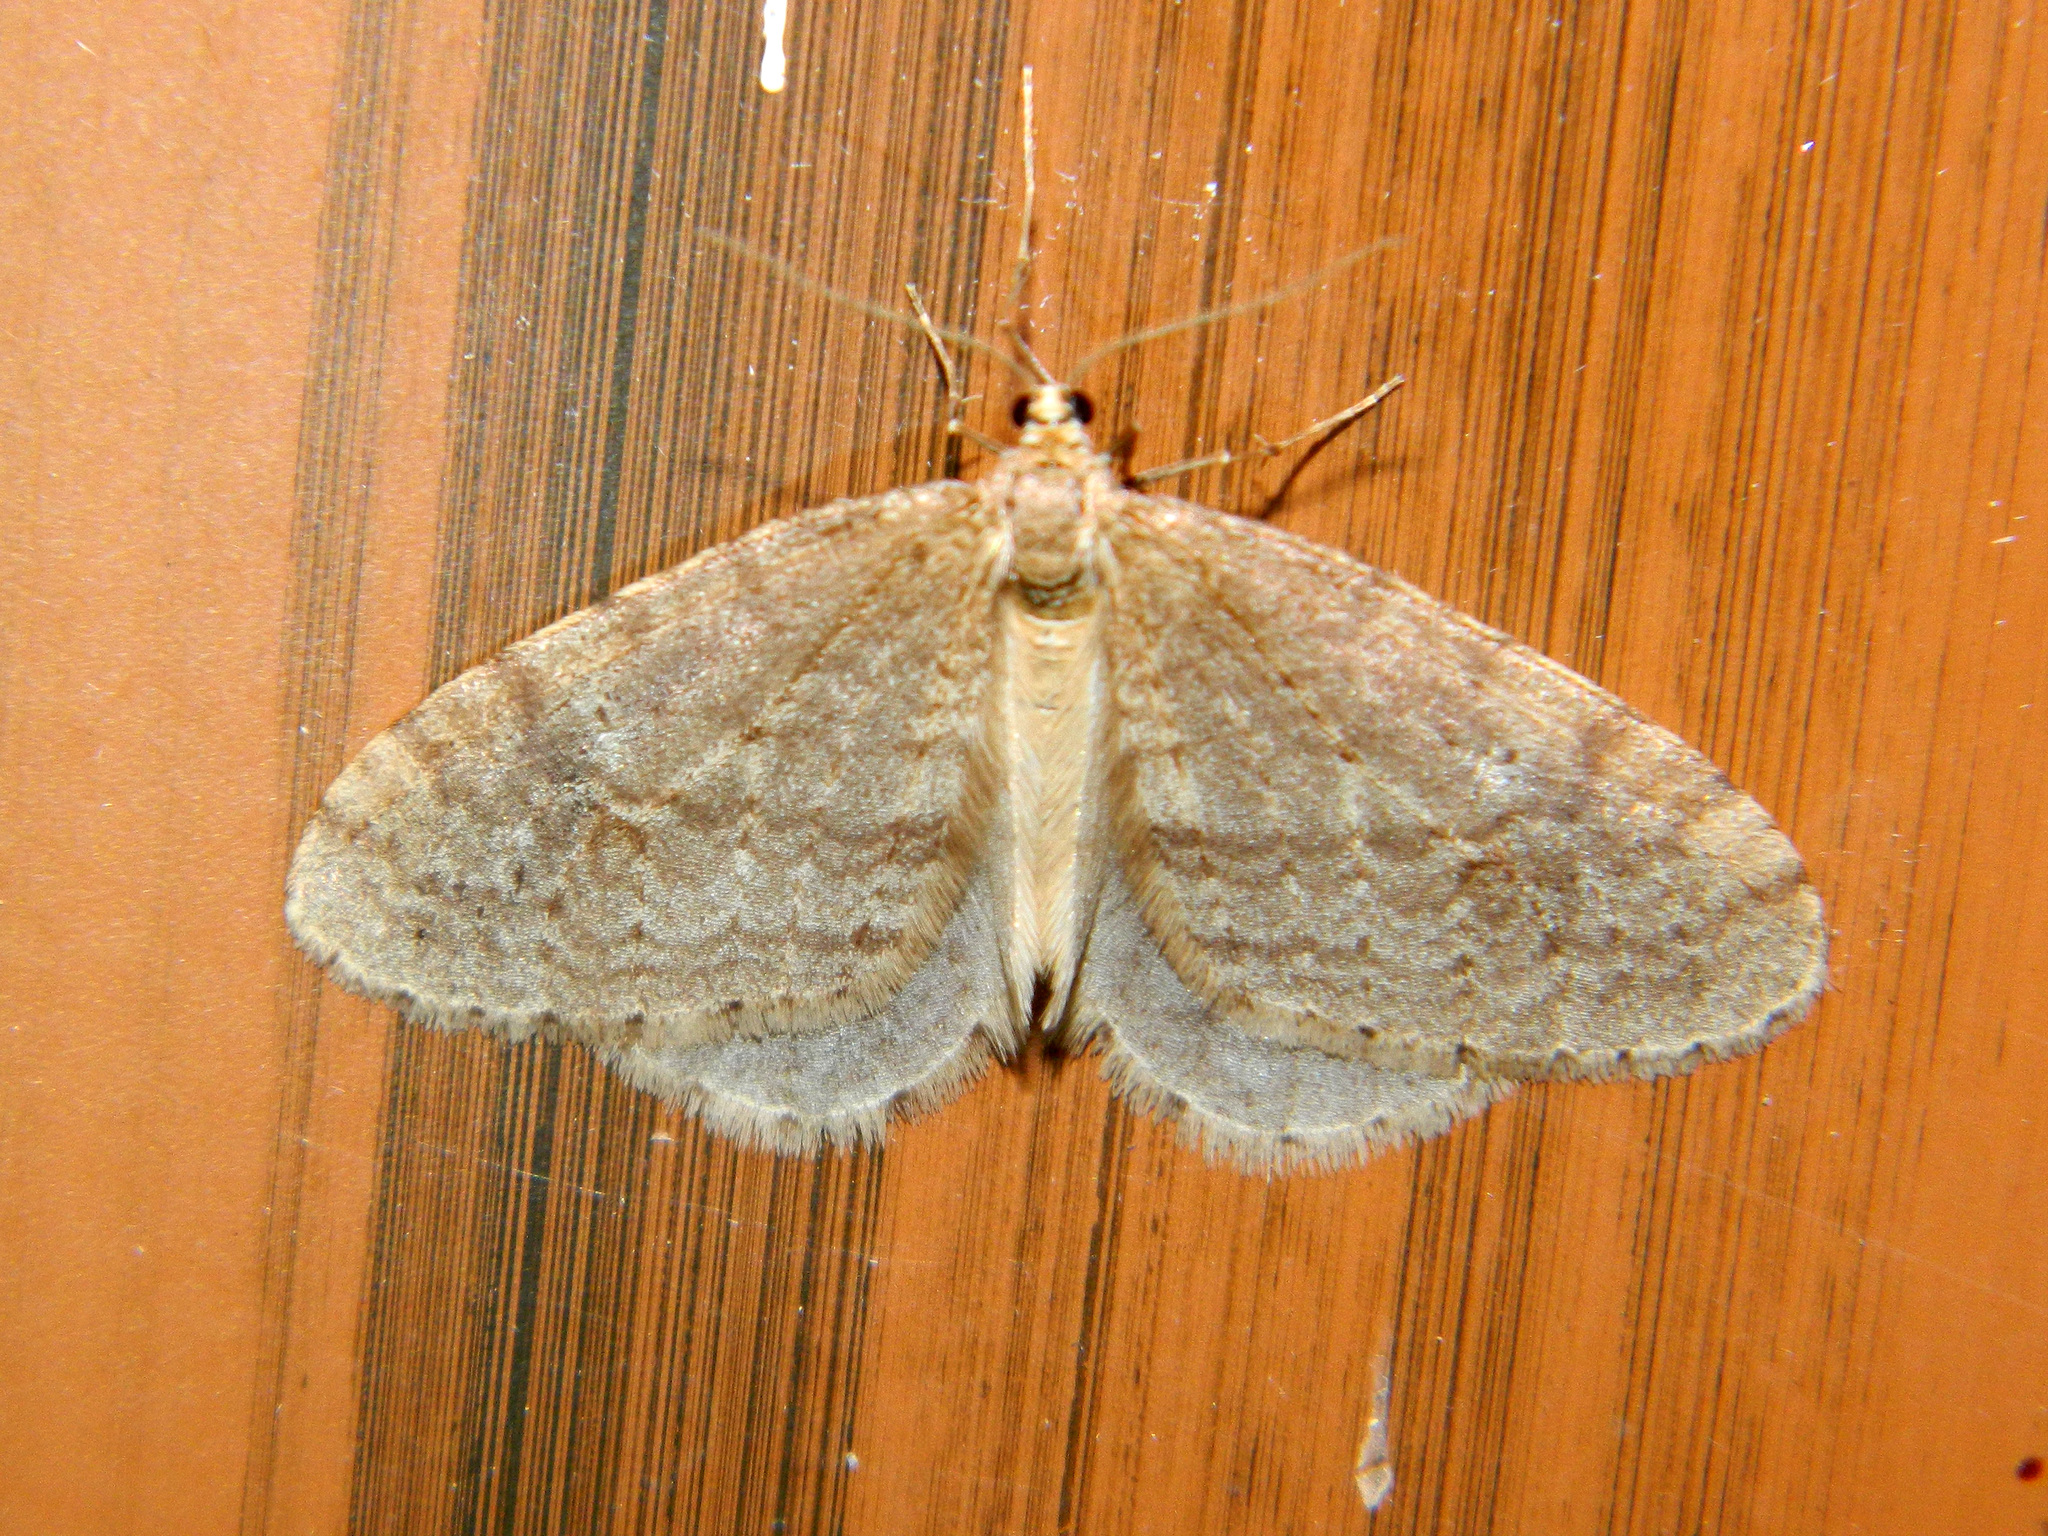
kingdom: Animalia
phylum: Arthropoda
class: Insecta
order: Lepidoptera
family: Geometridae
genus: Operophtera
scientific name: Operophtera bruceata
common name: Bruce spanworm
